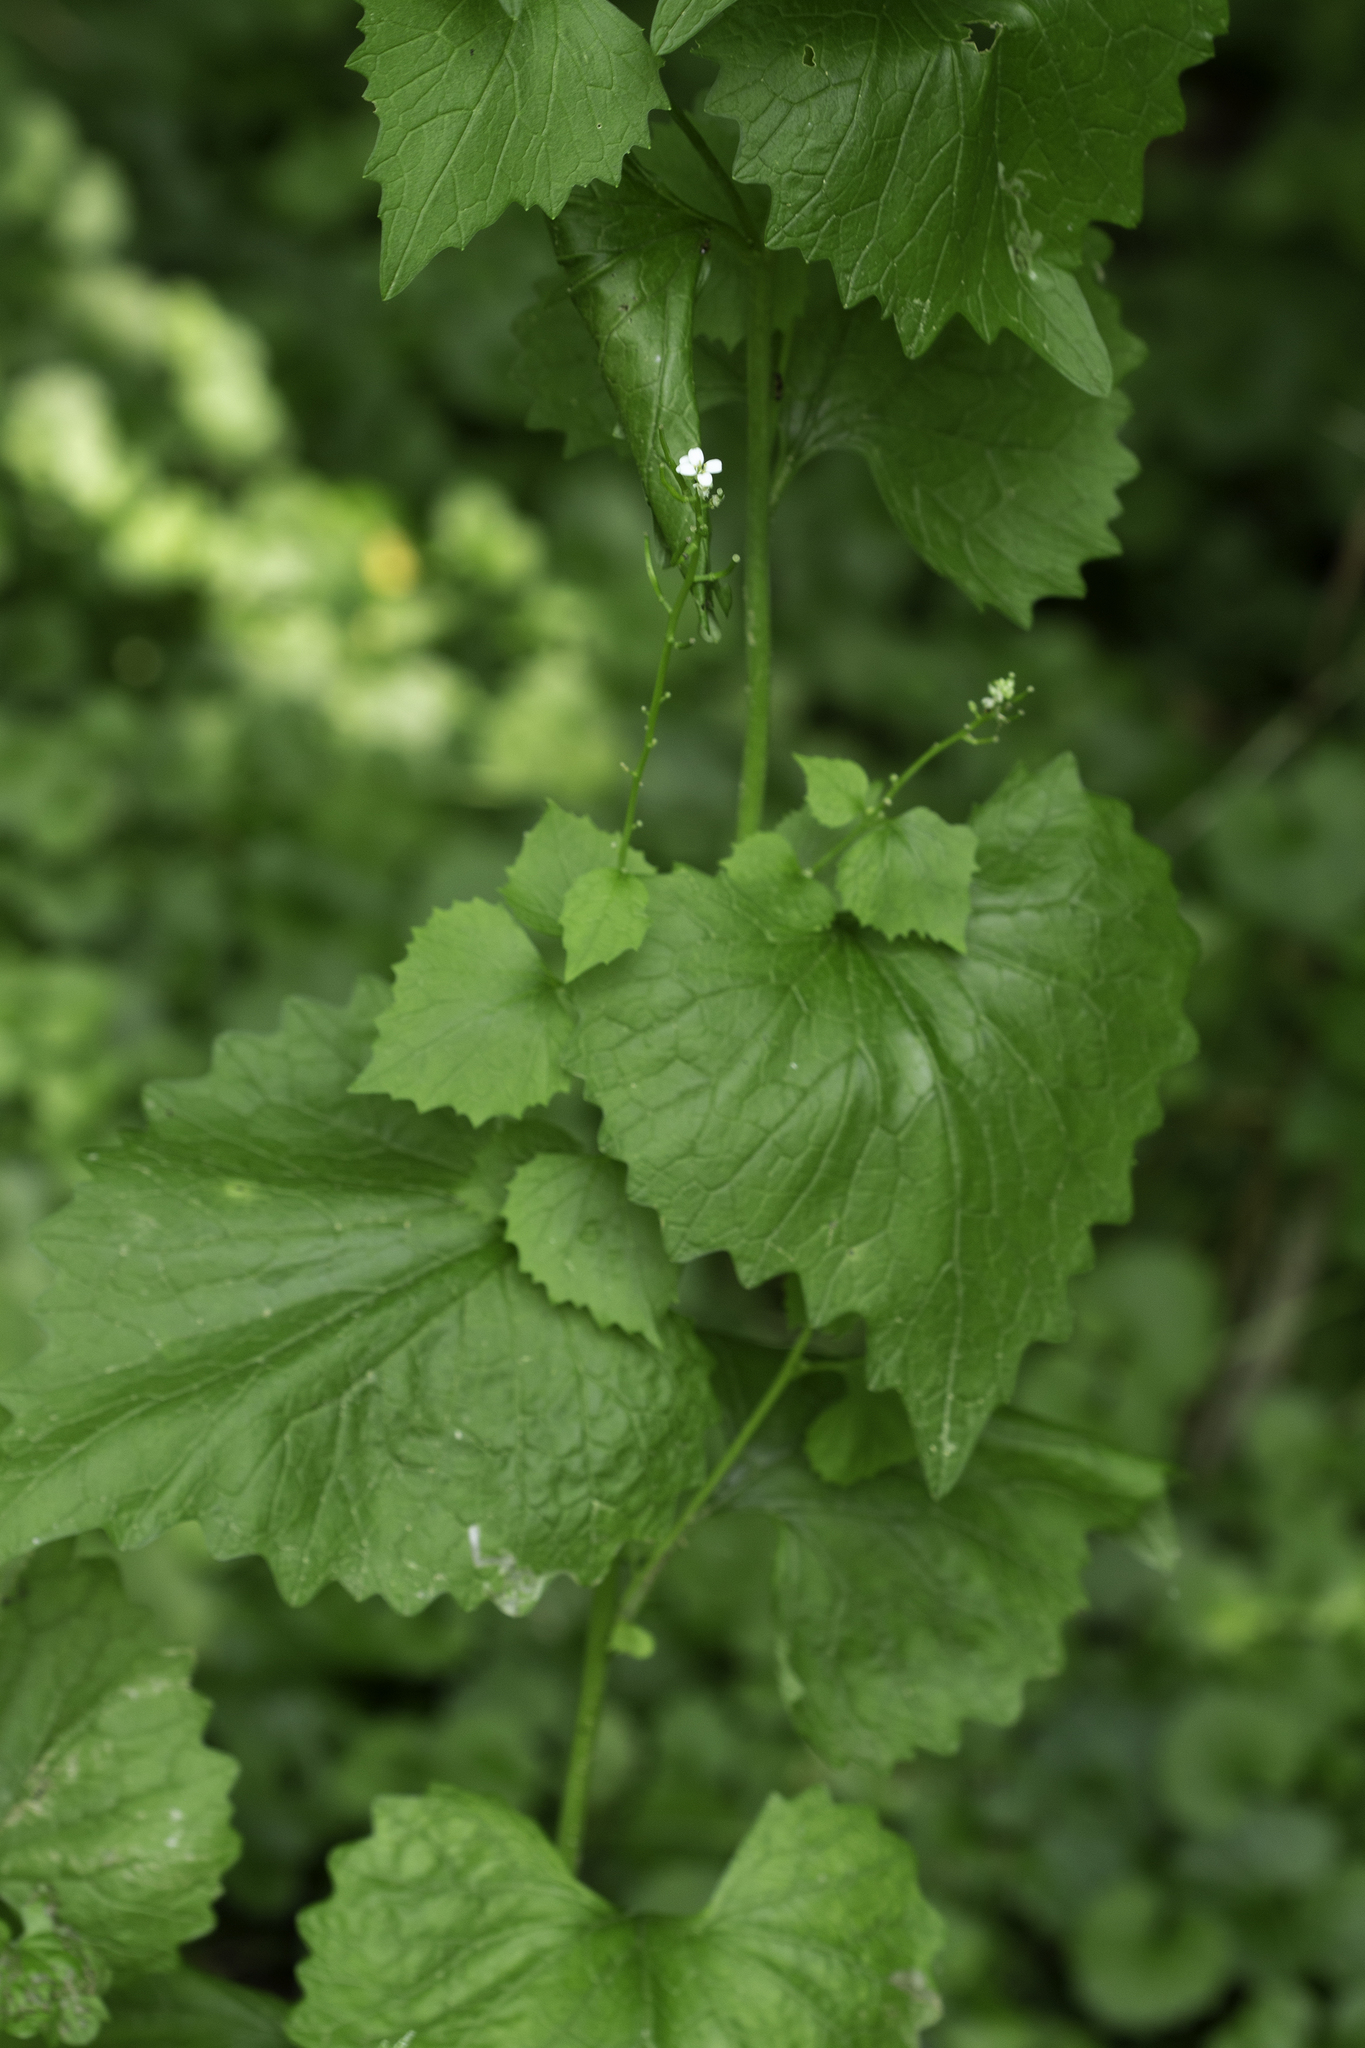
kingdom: Plantae
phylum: Tracheophyta
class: Magnoliopsida
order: Brassicales
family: Brassicaceae
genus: Alliaria
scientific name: Alliaria petiolata
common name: Garlic mustard
